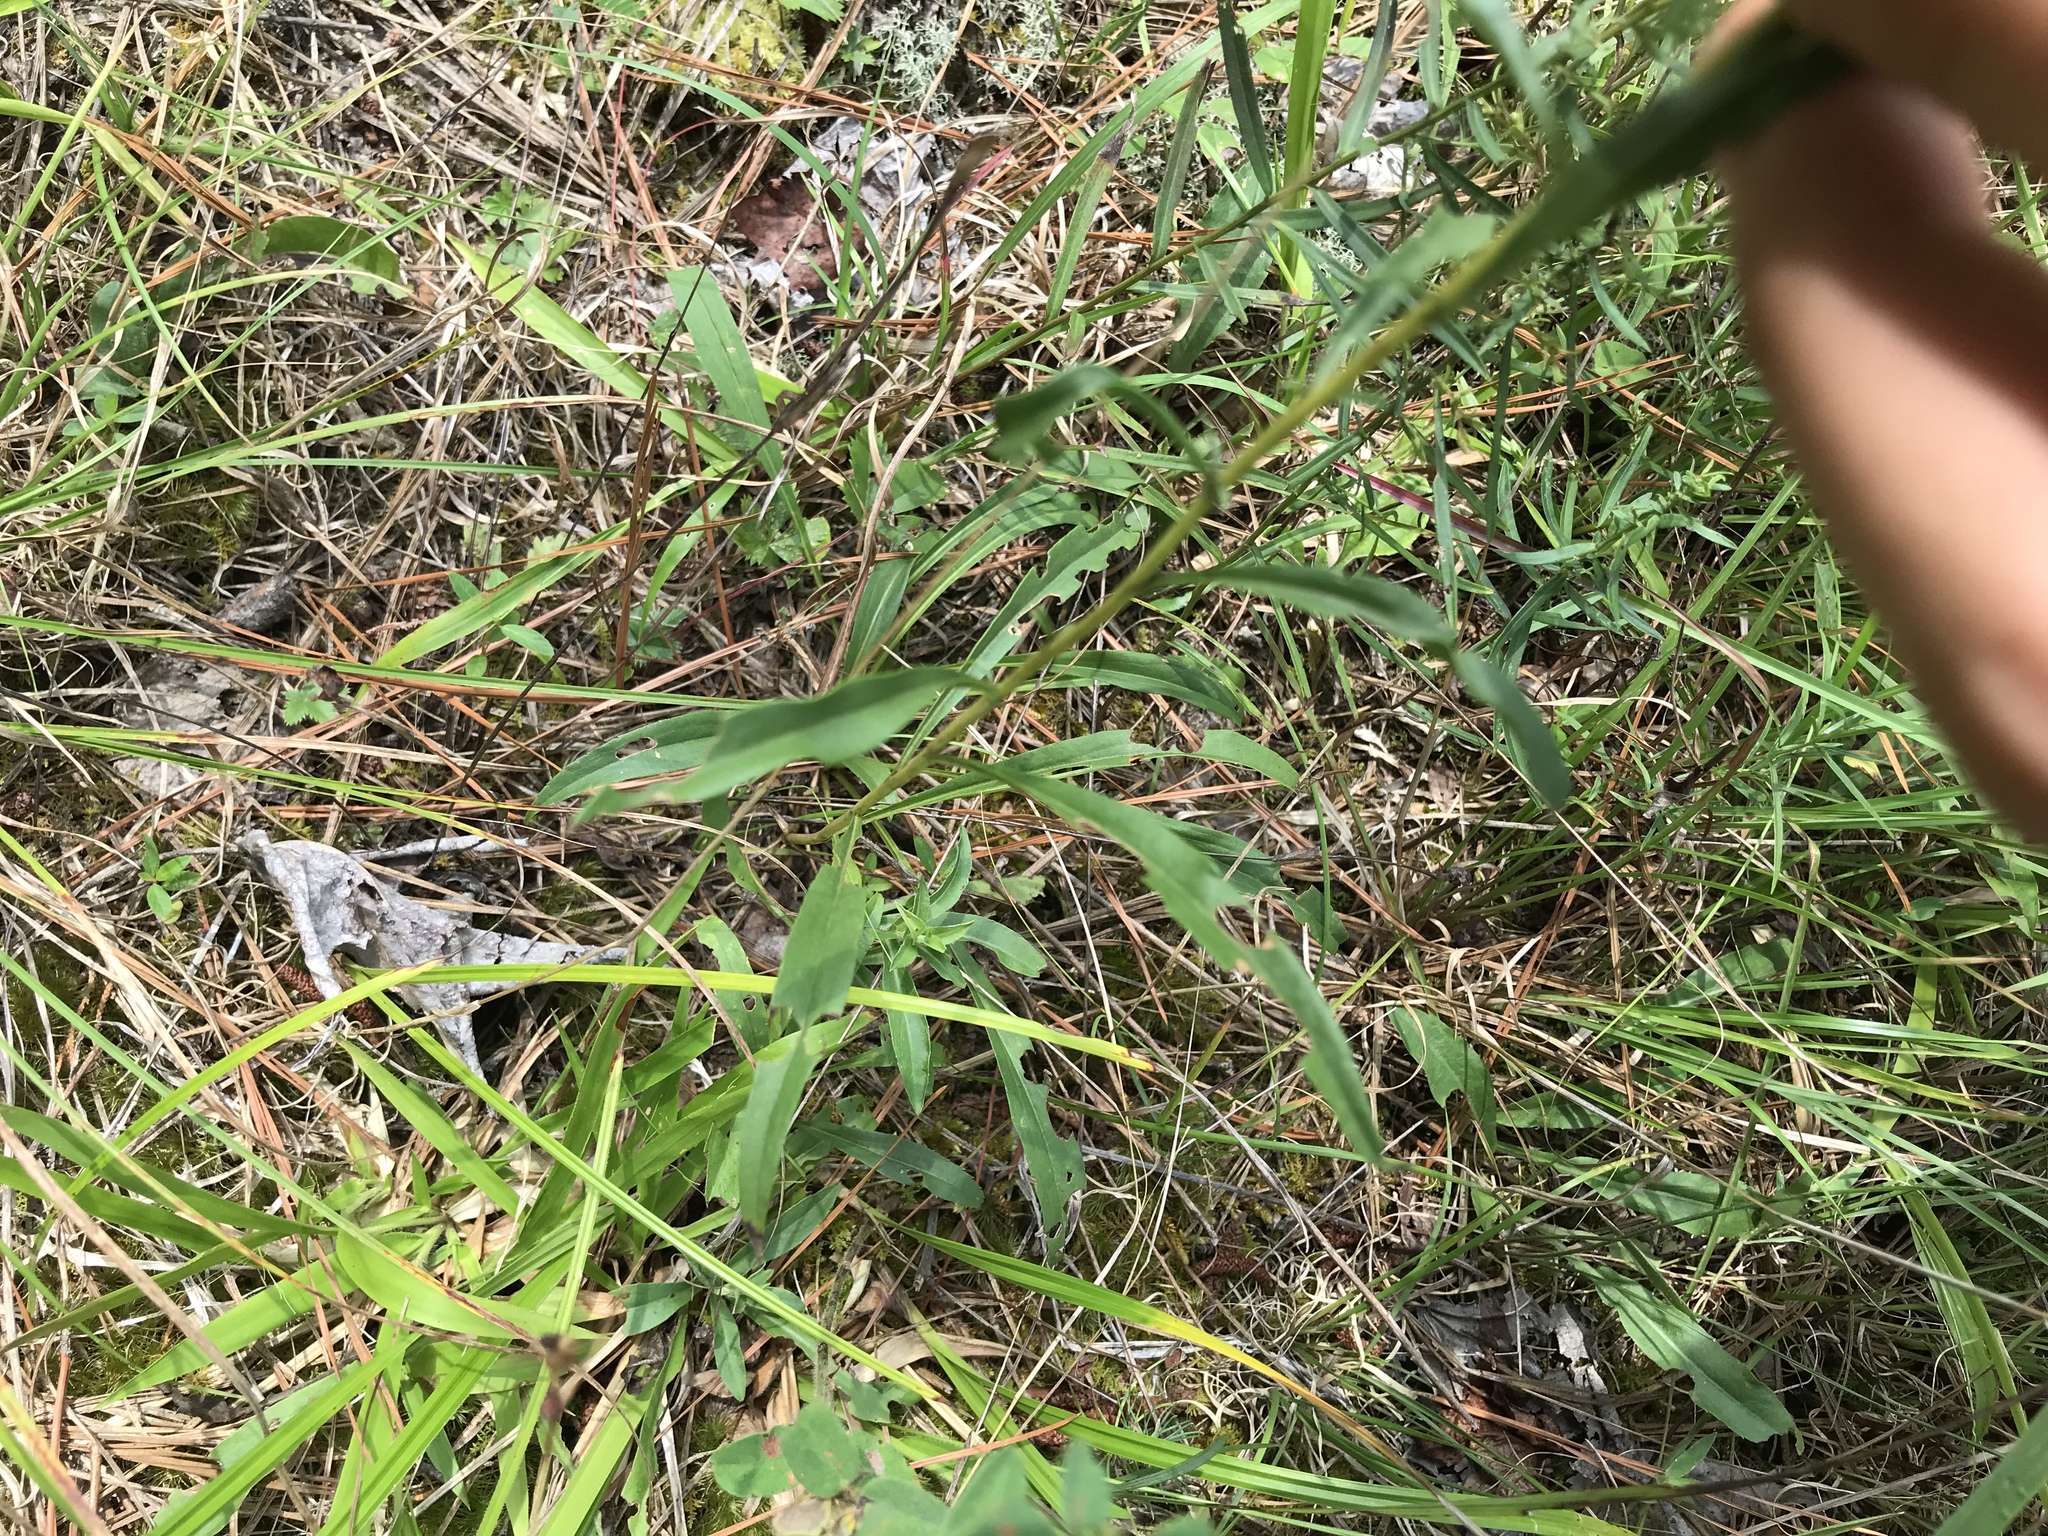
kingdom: Plantae
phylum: Tracheophyta
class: Magnoliopsida
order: Asterales
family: Asteraceae
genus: Solidago
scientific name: Solidago pinetorum
